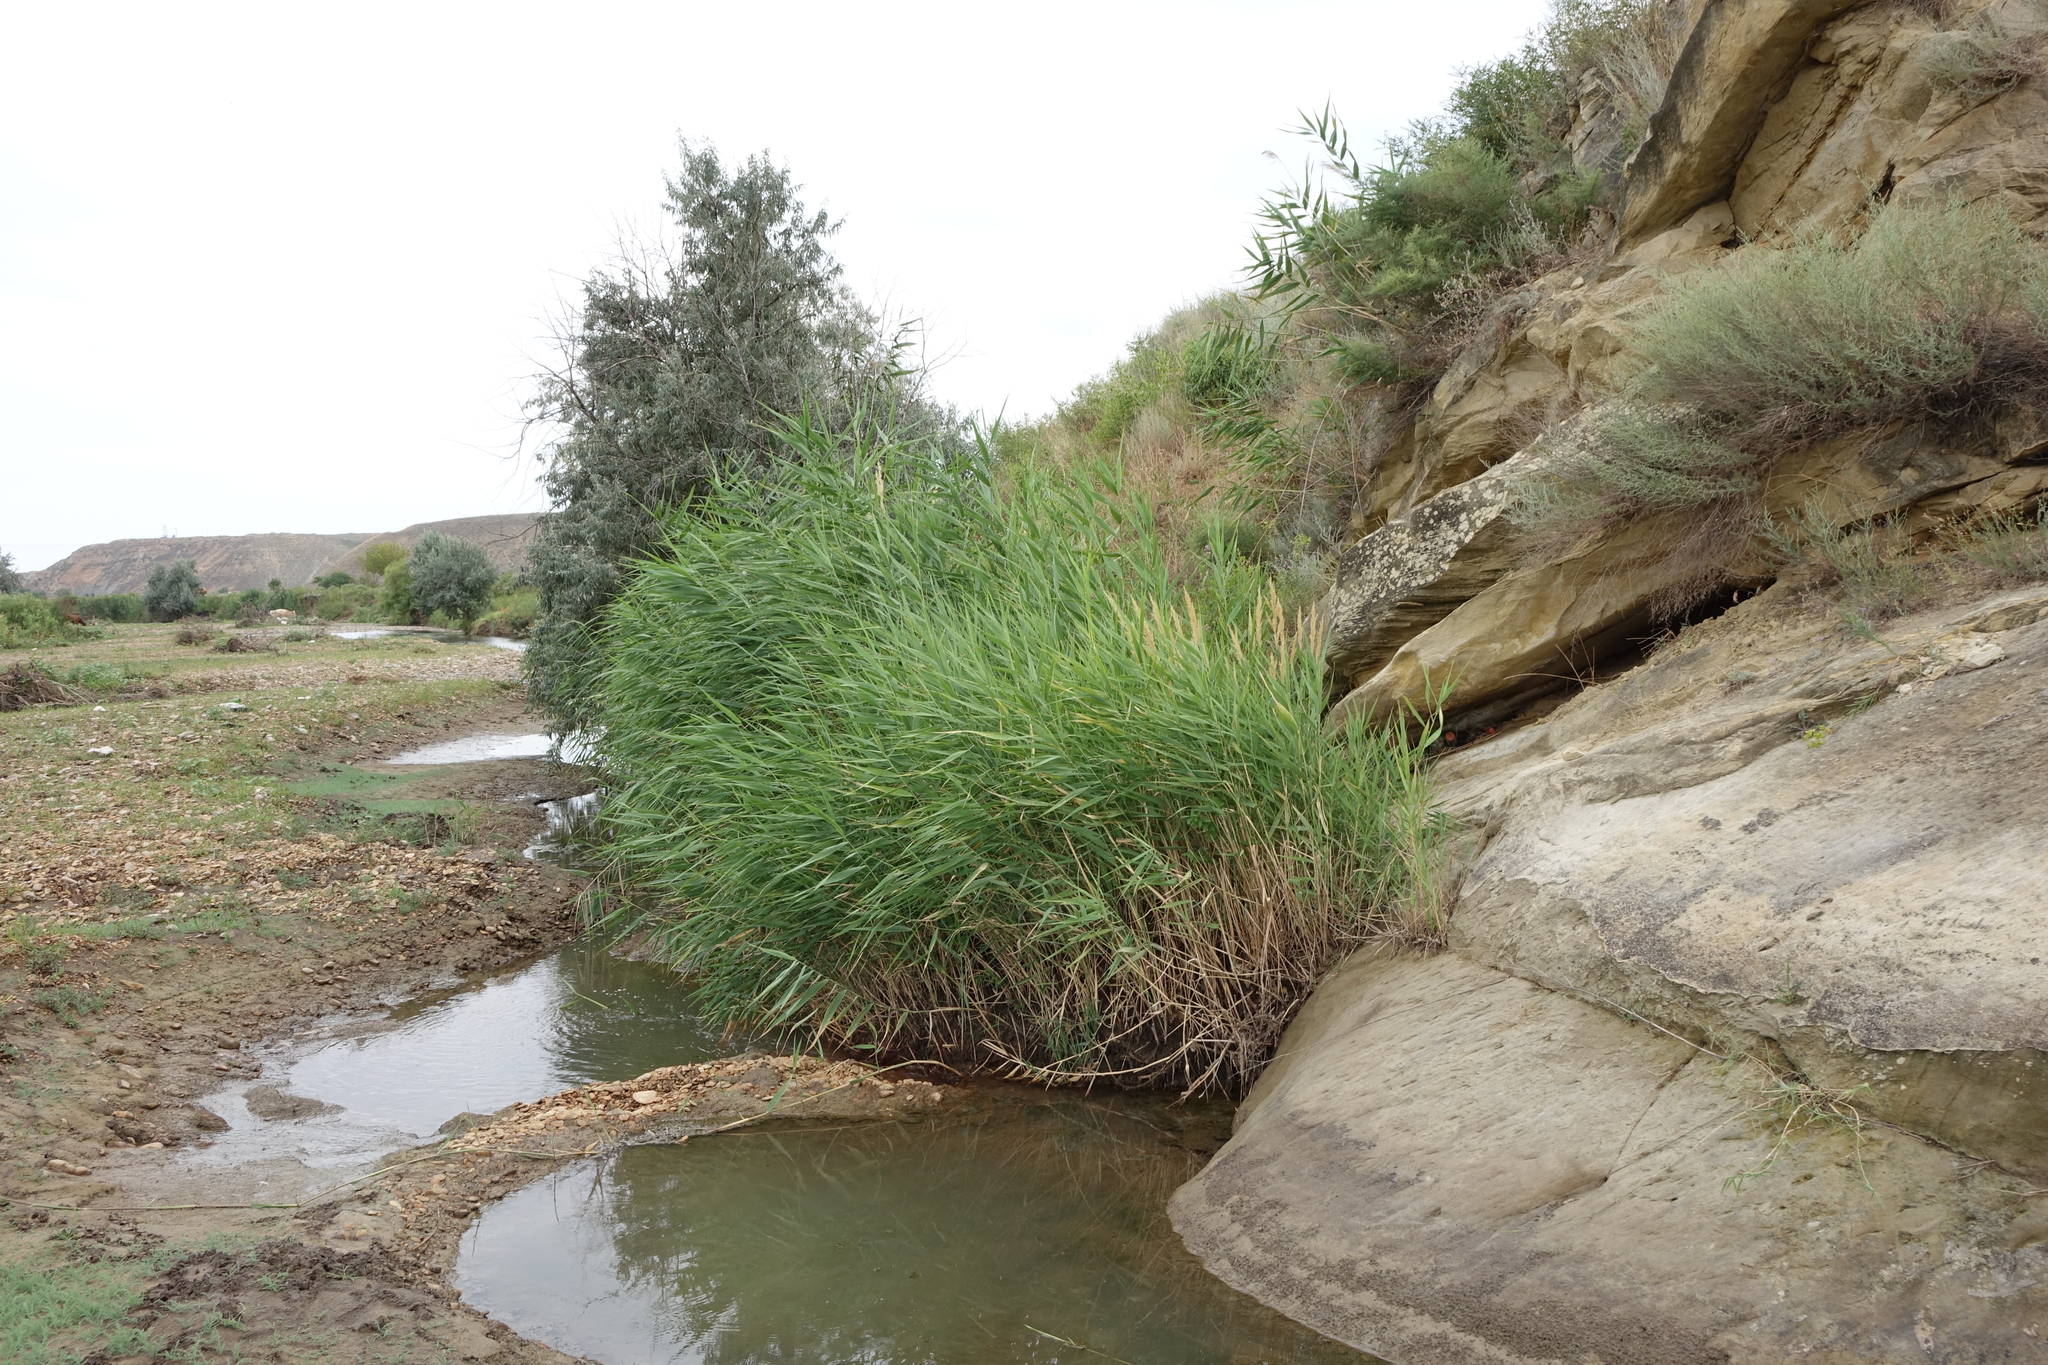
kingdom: Plantae
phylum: Tracheophyta
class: Liliopsida
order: Poales
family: Poaceae
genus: Phragmites
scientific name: Phragmites australis
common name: Common reed
